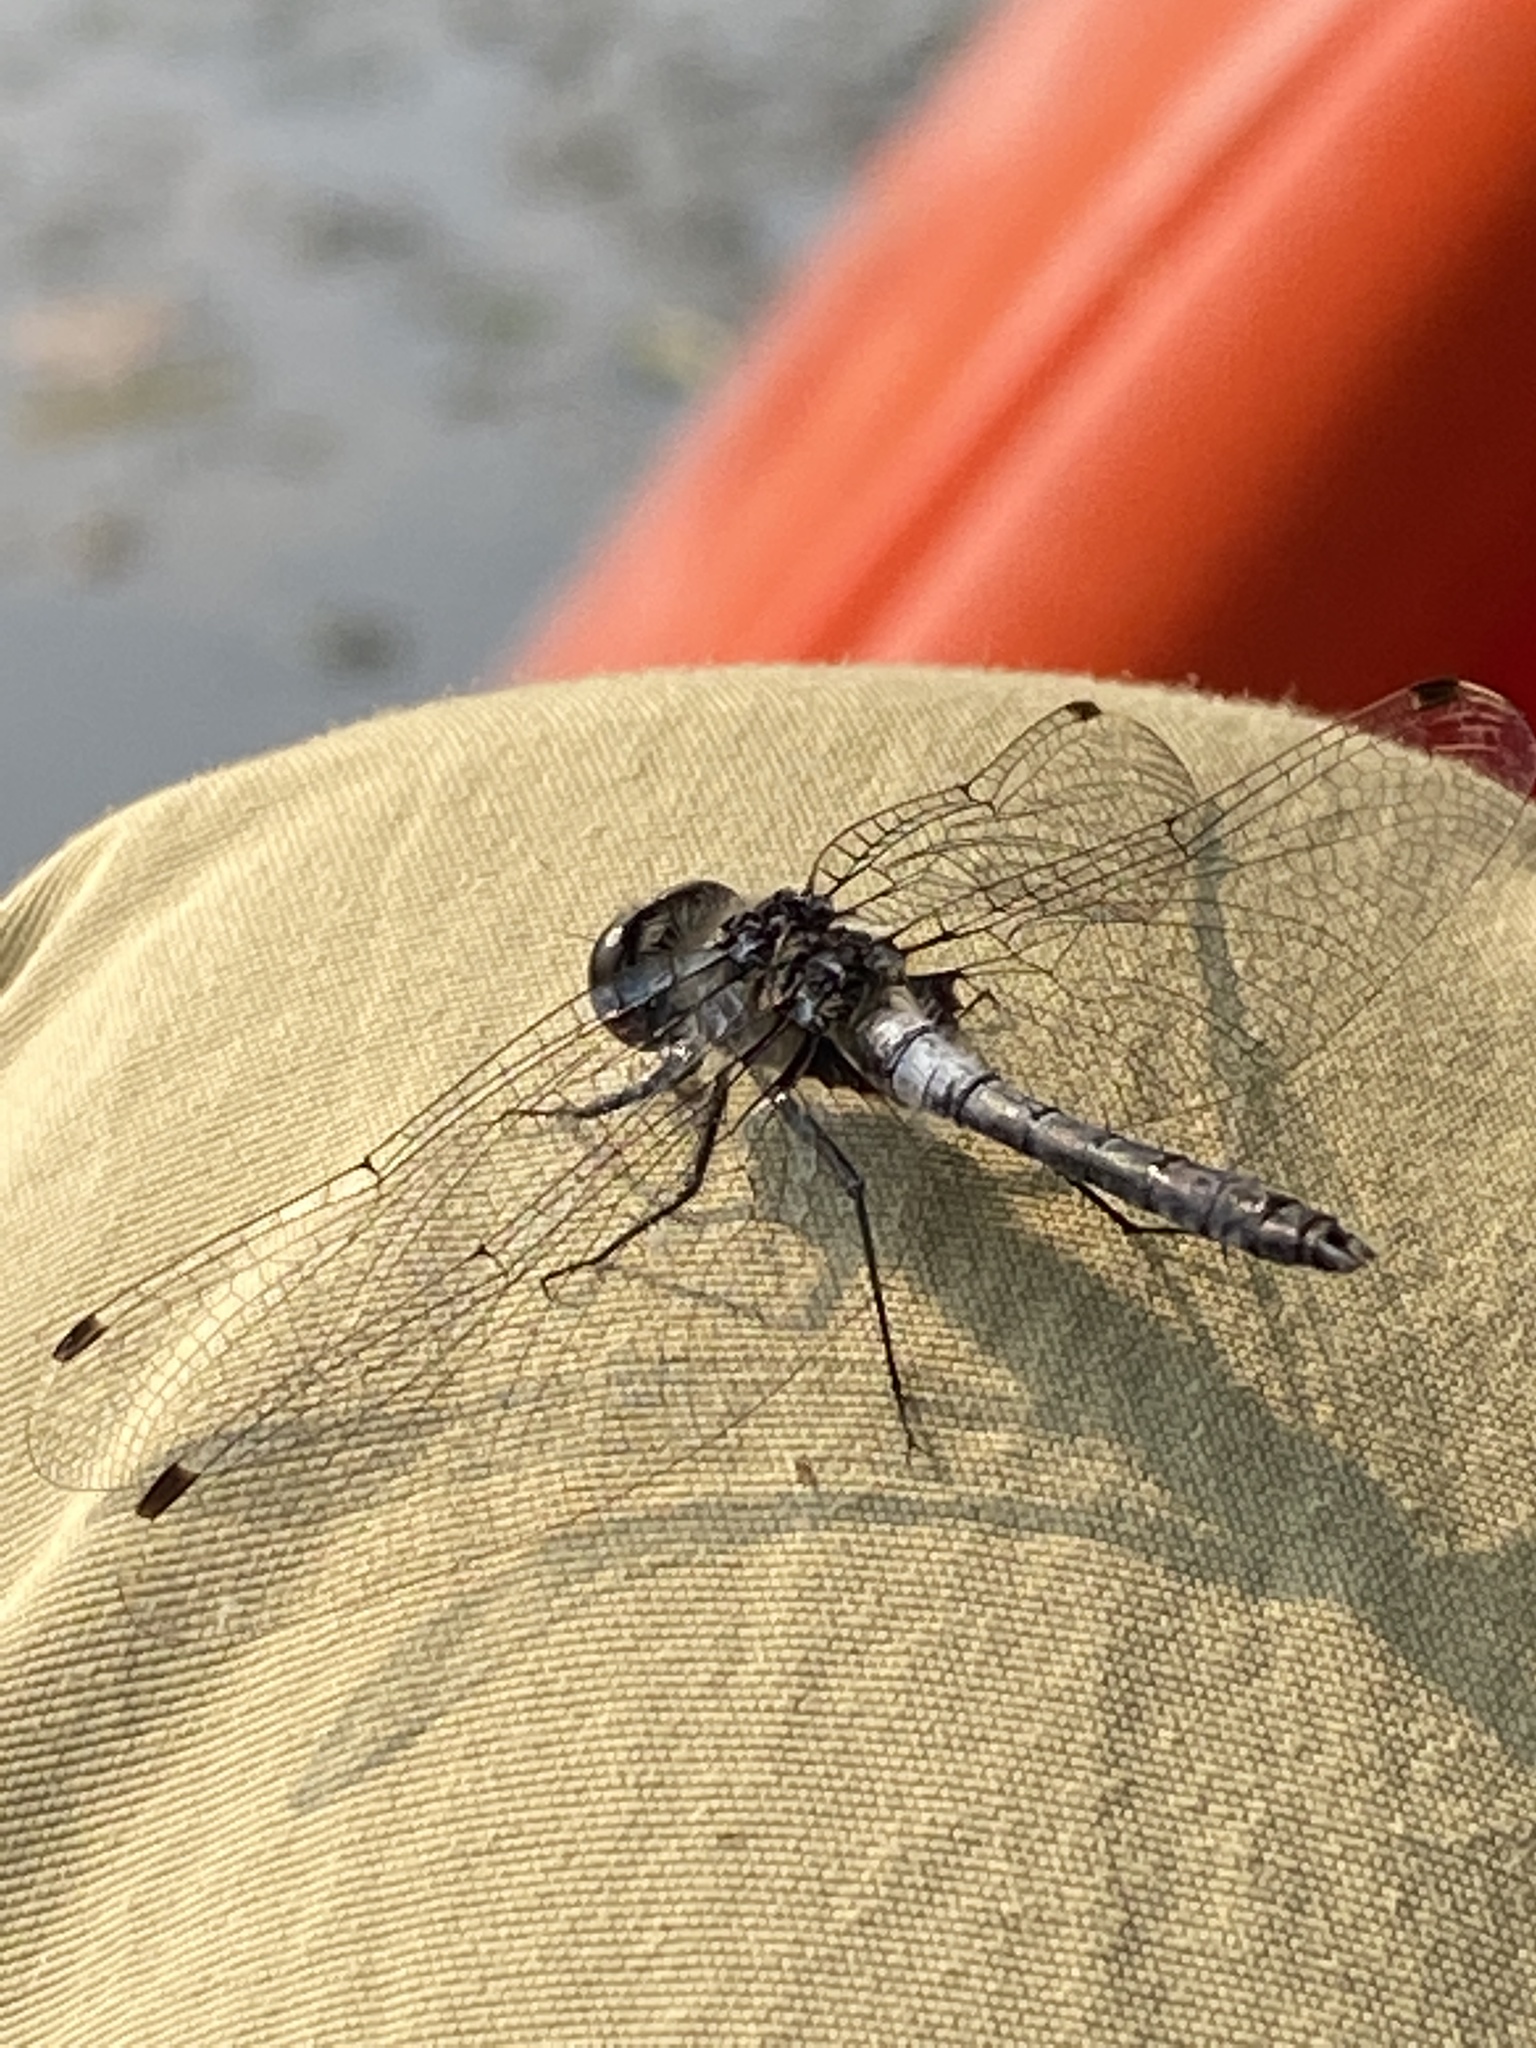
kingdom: Animalia
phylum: Arthropoda
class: Insecta
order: Odonata
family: Libellulidae
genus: Leucorrhinia
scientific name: Leucorrhinia frigida
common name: Frosted whiteface
